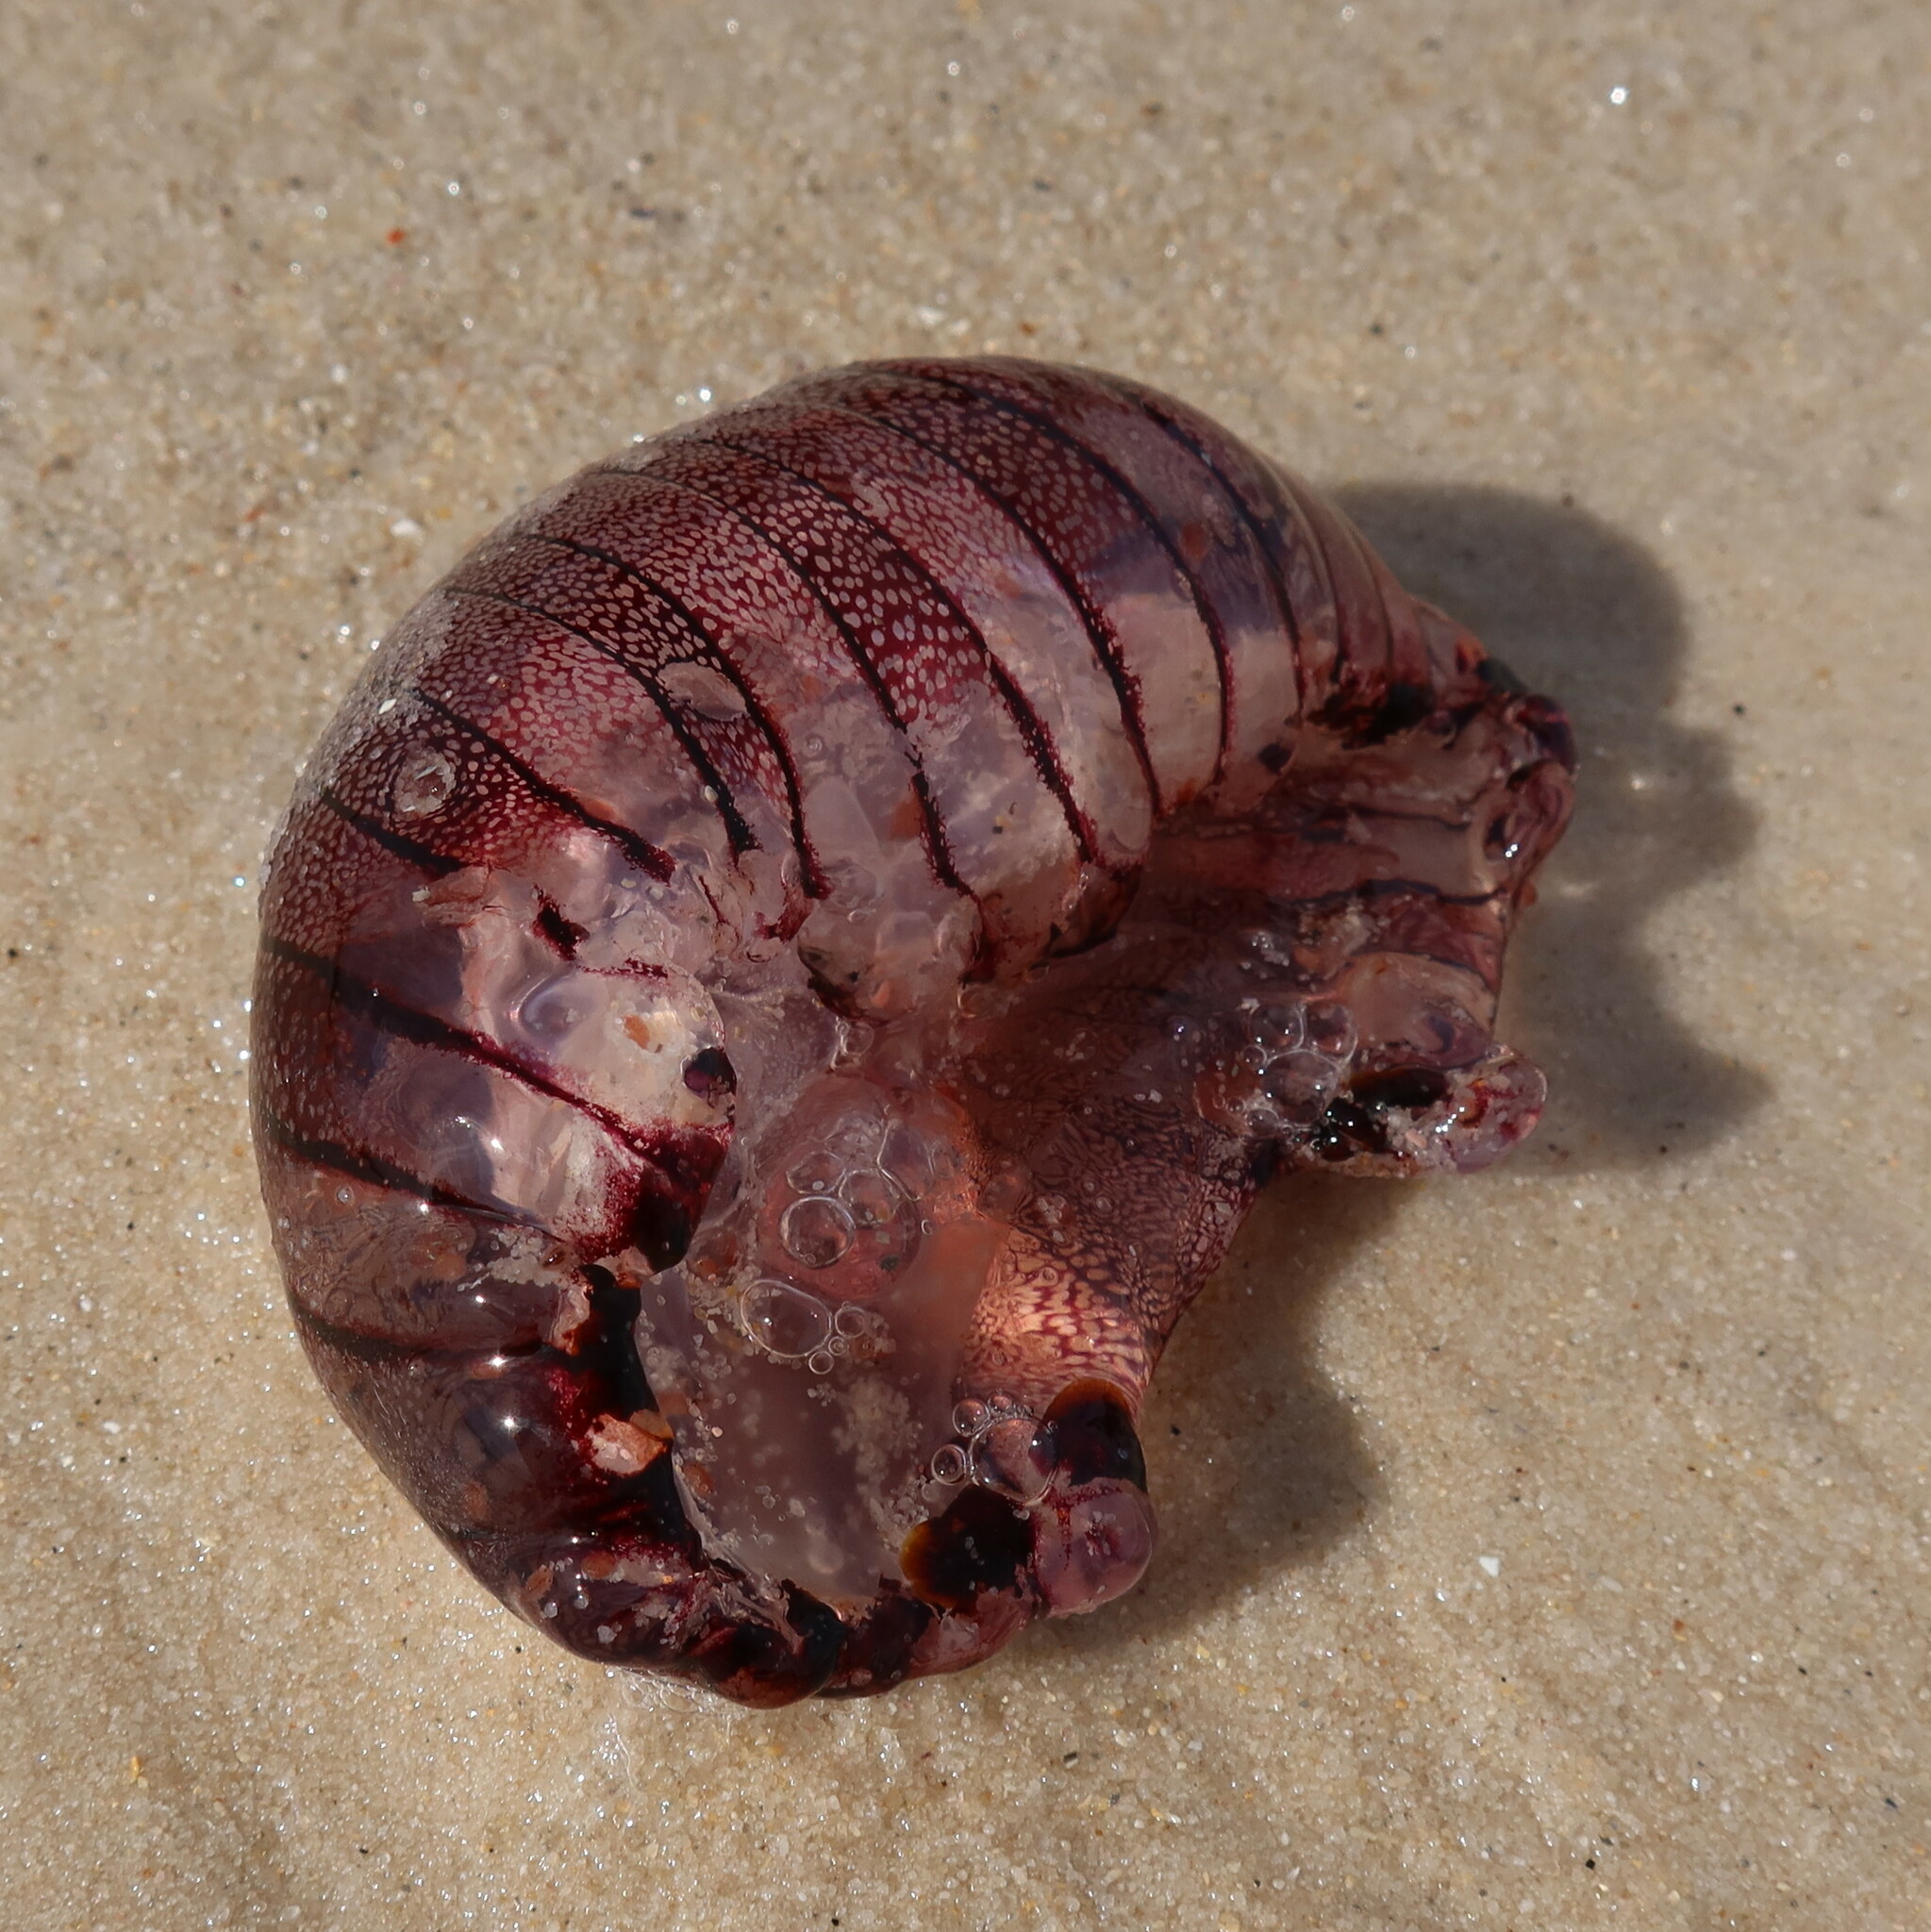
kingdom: Animalia
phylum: Cnidaria
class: Scyphozoa
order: Semaeostomeae
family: Pelagiidae
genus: Chrysaora
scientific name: Chrysaora agulhensis
